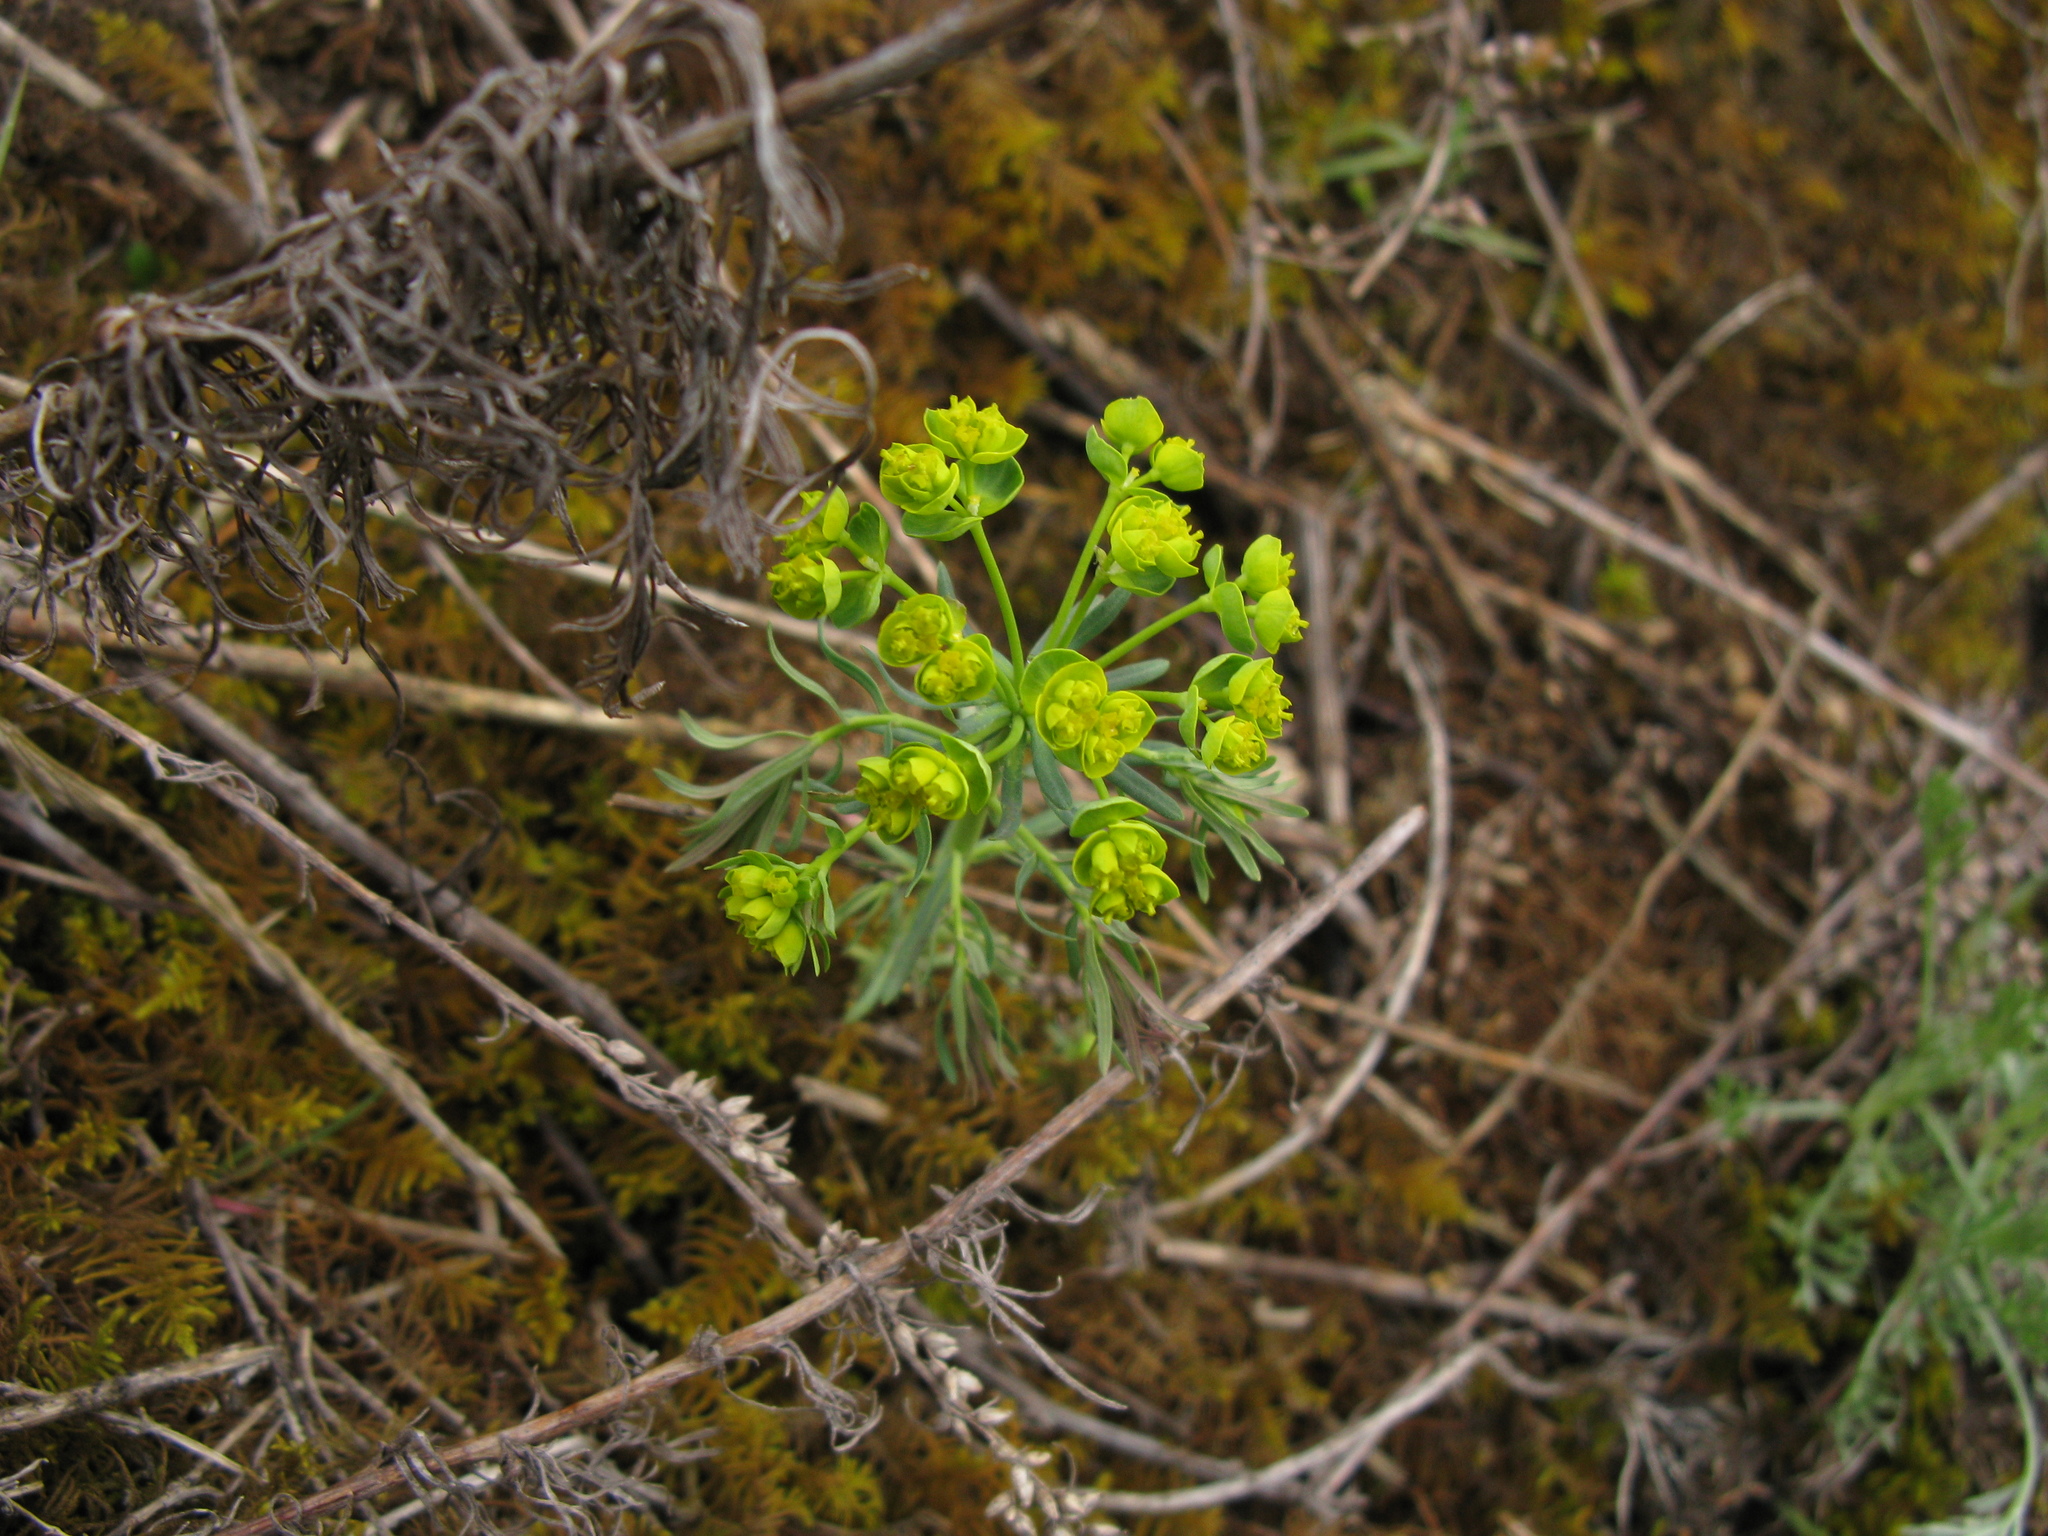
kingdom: Plantae
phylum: Tracheophyta
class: Magnoliopsida
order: Malpighiales
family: Euphorbiaceae
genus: Euphorbia
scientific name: Euphorbia cyparissias
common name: Cypress spurge
